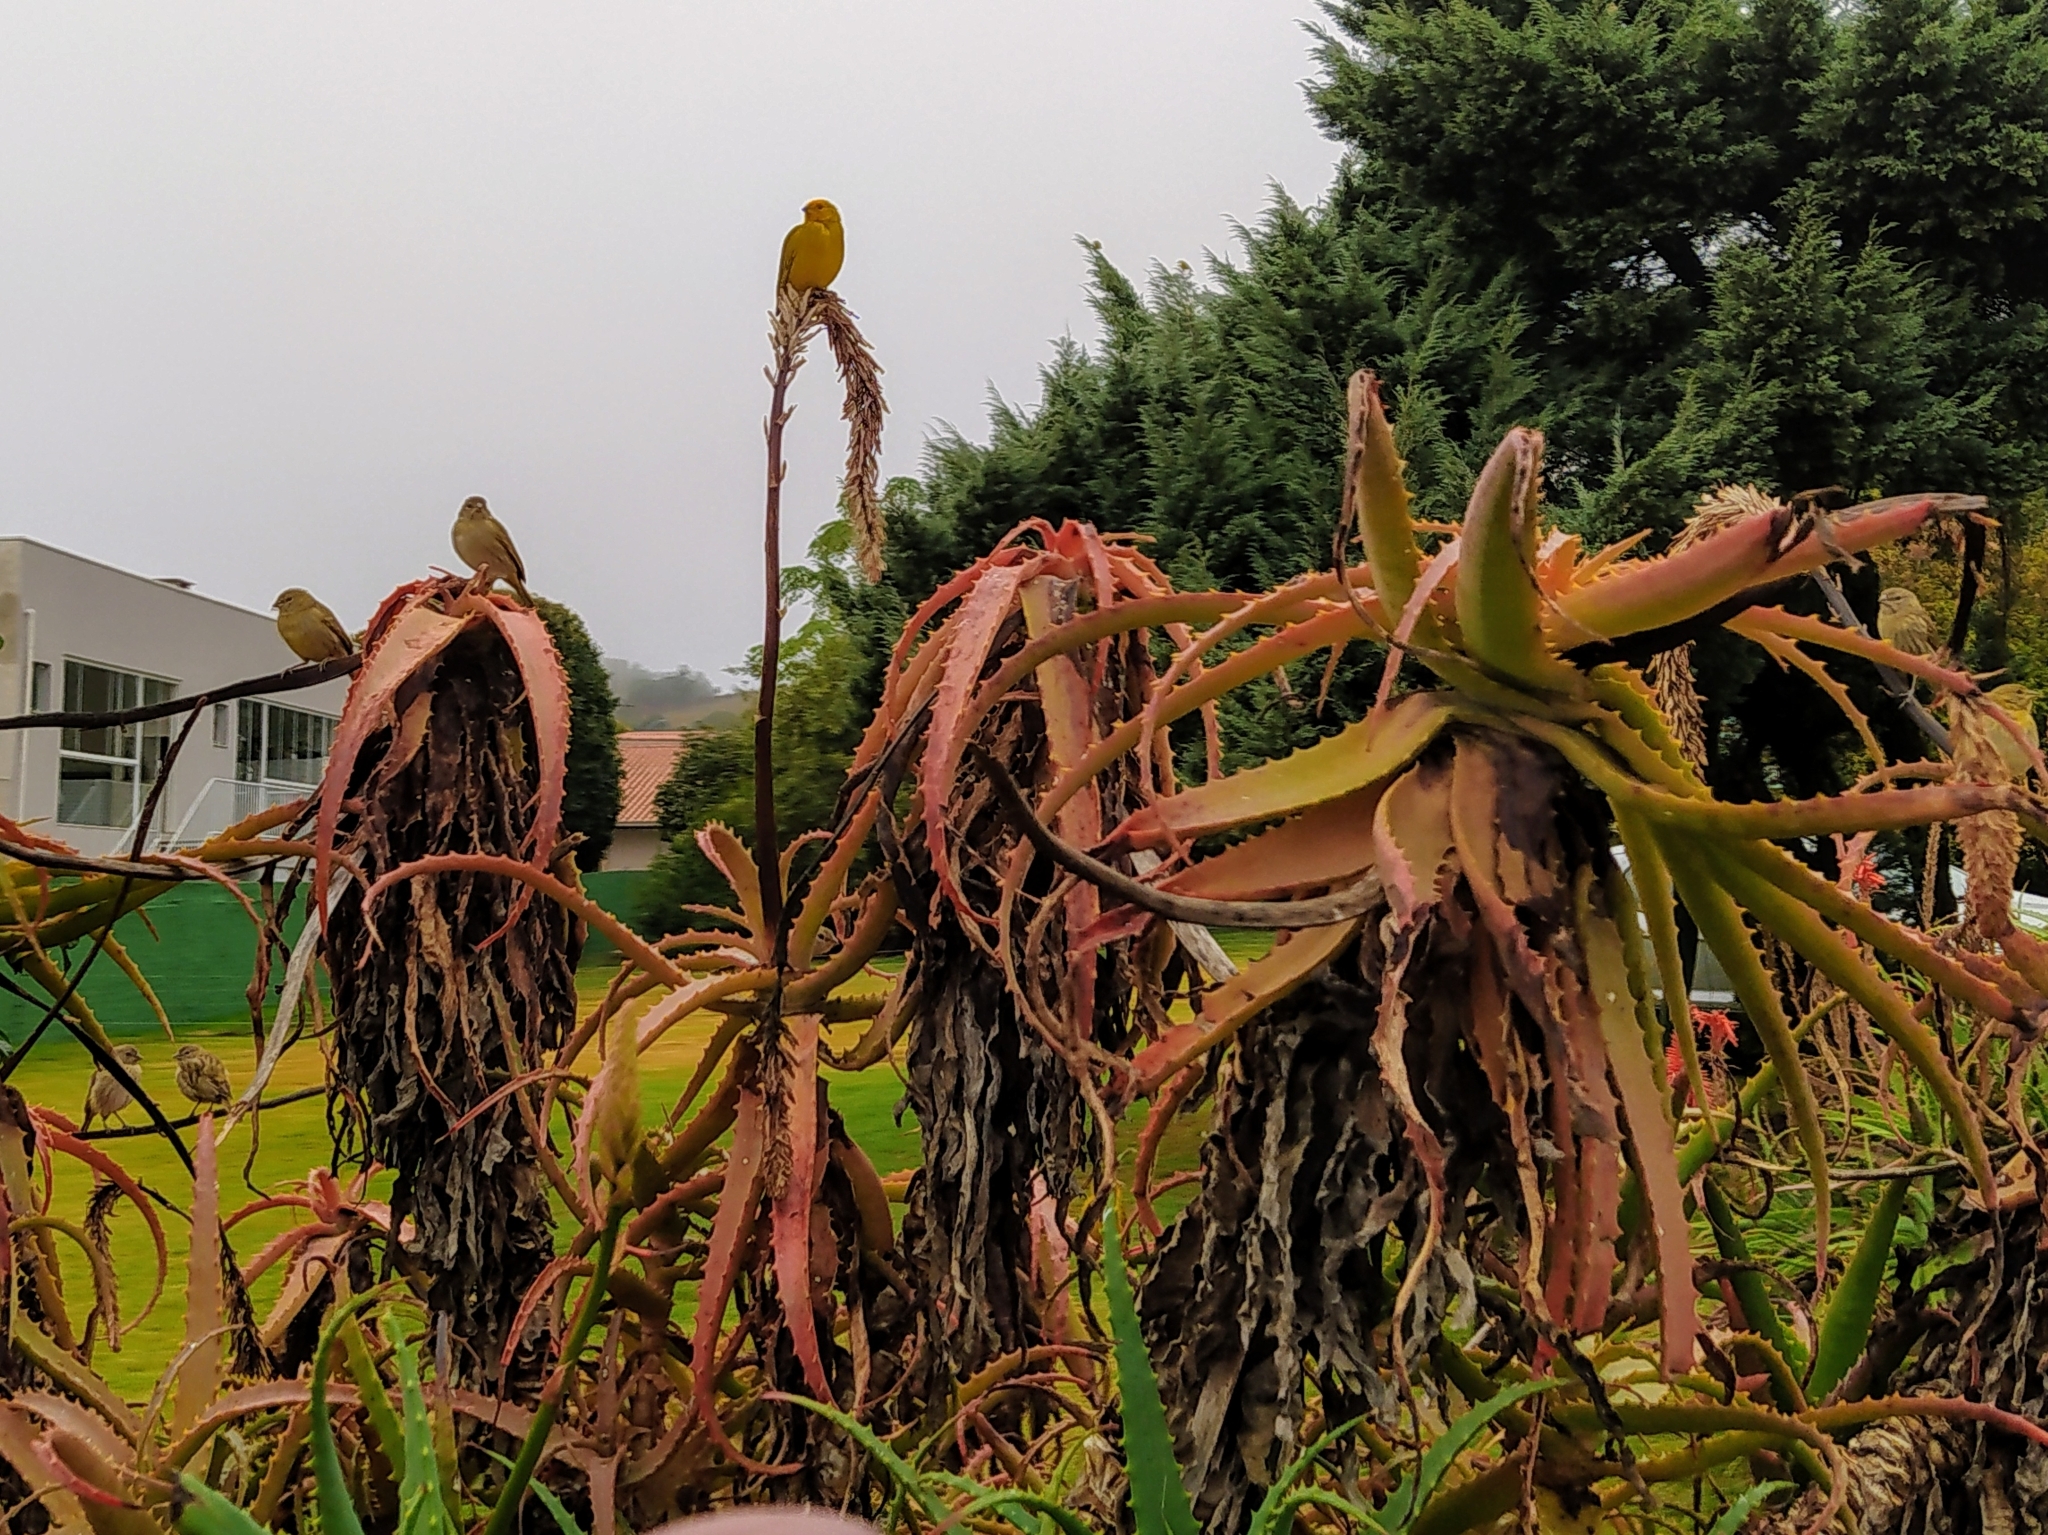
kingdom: Animalia
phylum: Chordata
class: Aves
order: Passeriformes
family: Thraupidae
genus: Sicalis
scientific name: Sicalis flaveola
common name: Saffron finch
